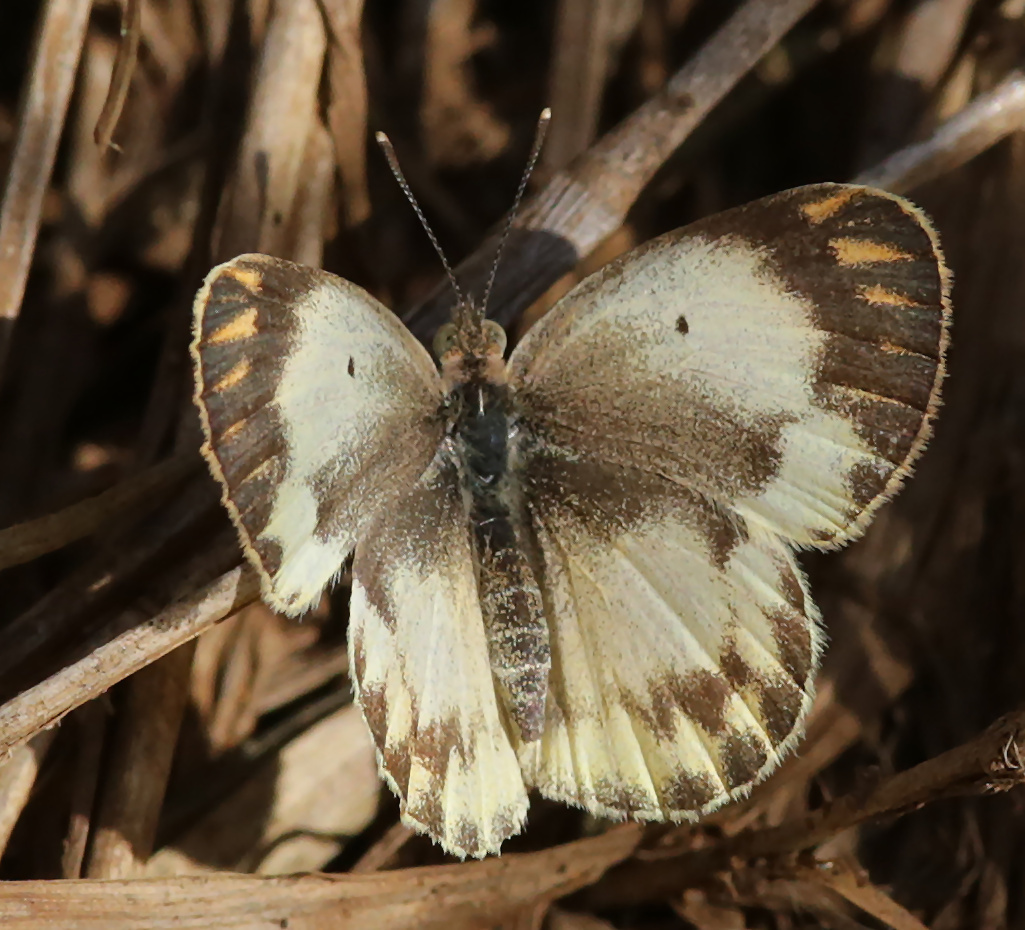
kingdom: Animalia
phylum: Arthropoda
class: Insecta
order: Lepidoptera
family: Pieridae
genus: Colotis
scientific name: Colotis pallene
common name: Bushveld orange tip
